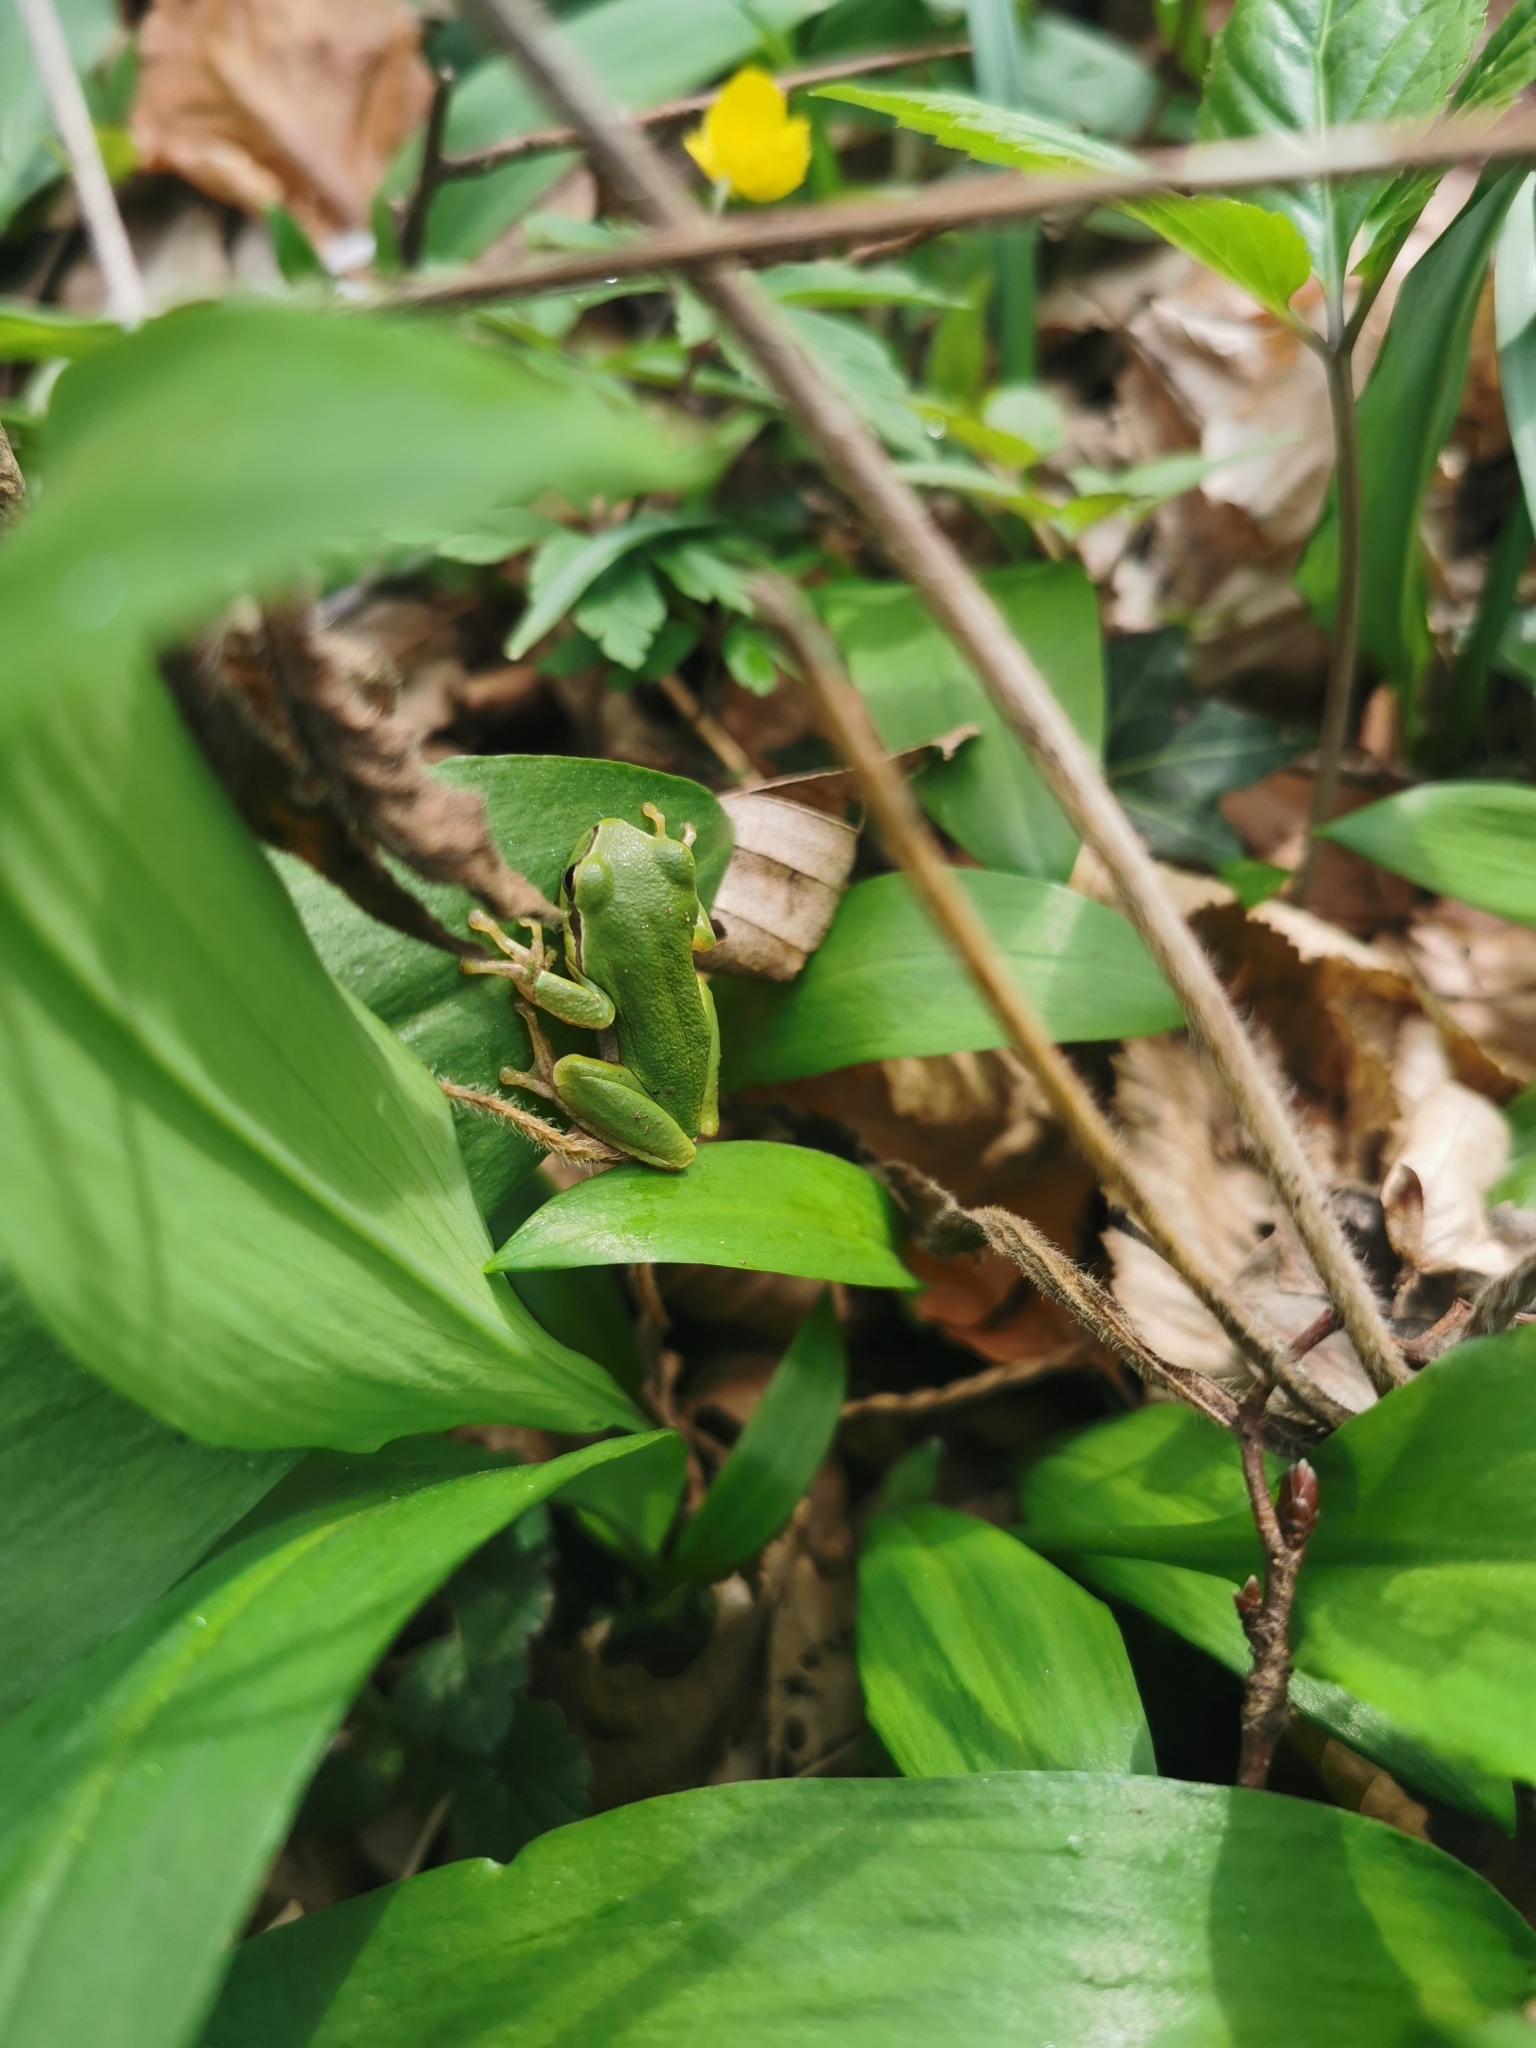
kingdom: Animalia
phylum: Chordata
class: Amphibia
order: Anura
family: Hylidae
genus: Hyla
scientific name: Hyla arborea
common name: Common tree frog
